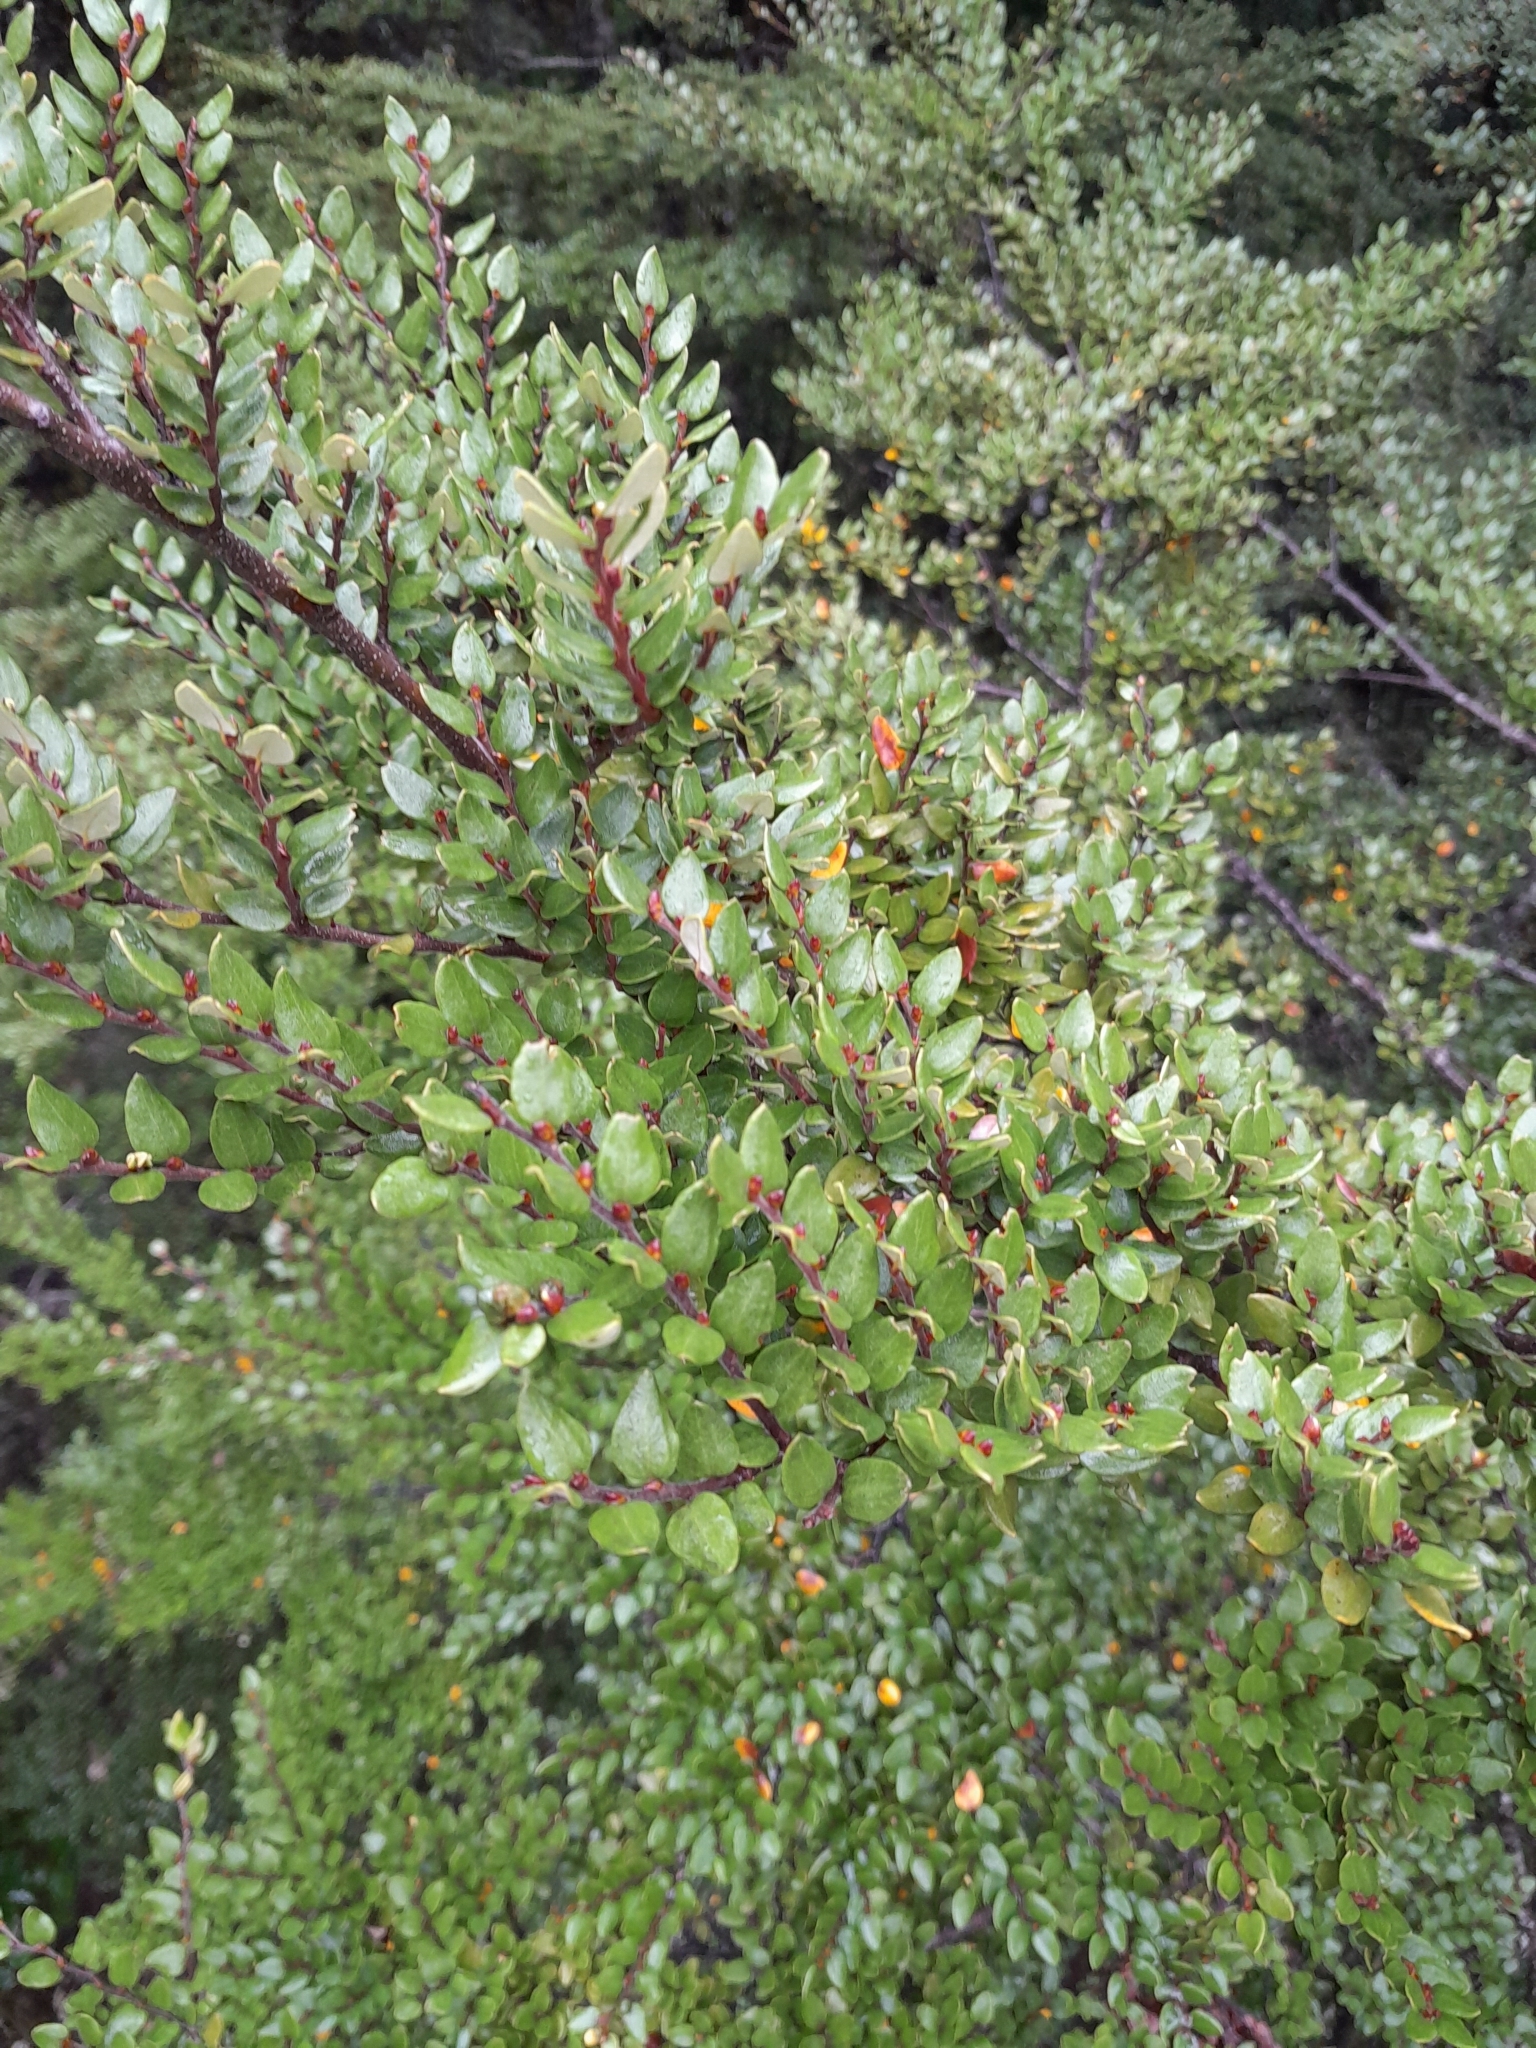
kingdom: Plantae
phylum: Tracheophyta
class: Magnoliopsida
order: Fagales
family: Nothofagaceae
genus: Nothofagus
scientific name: Nothofagus cliffortioides
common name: Mountain beech
